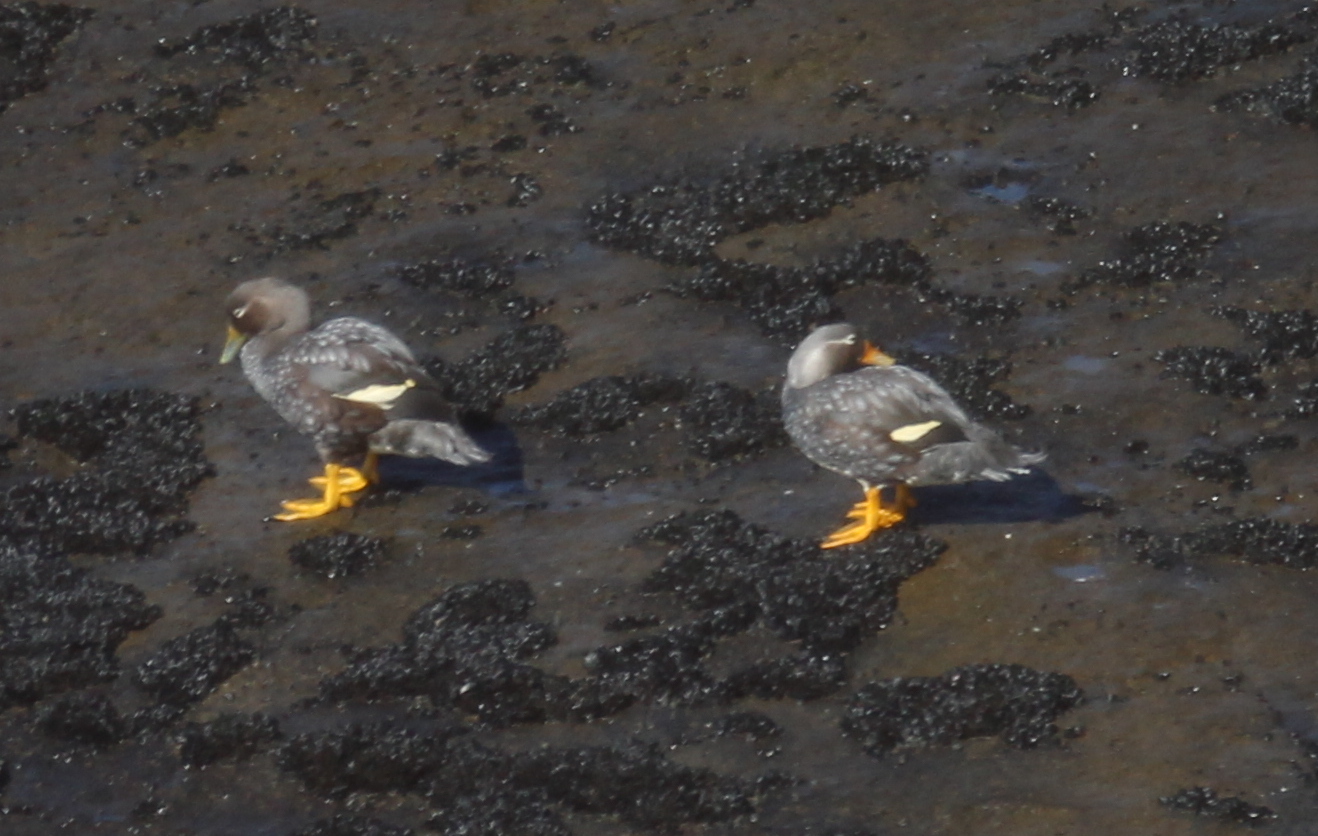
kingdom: Animalia
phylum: Chordata
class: Aves
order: Anseriformes
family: Anatidae
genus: Tachyeres
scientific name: Tachyeres patachonicus
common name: Flying steamer duck
